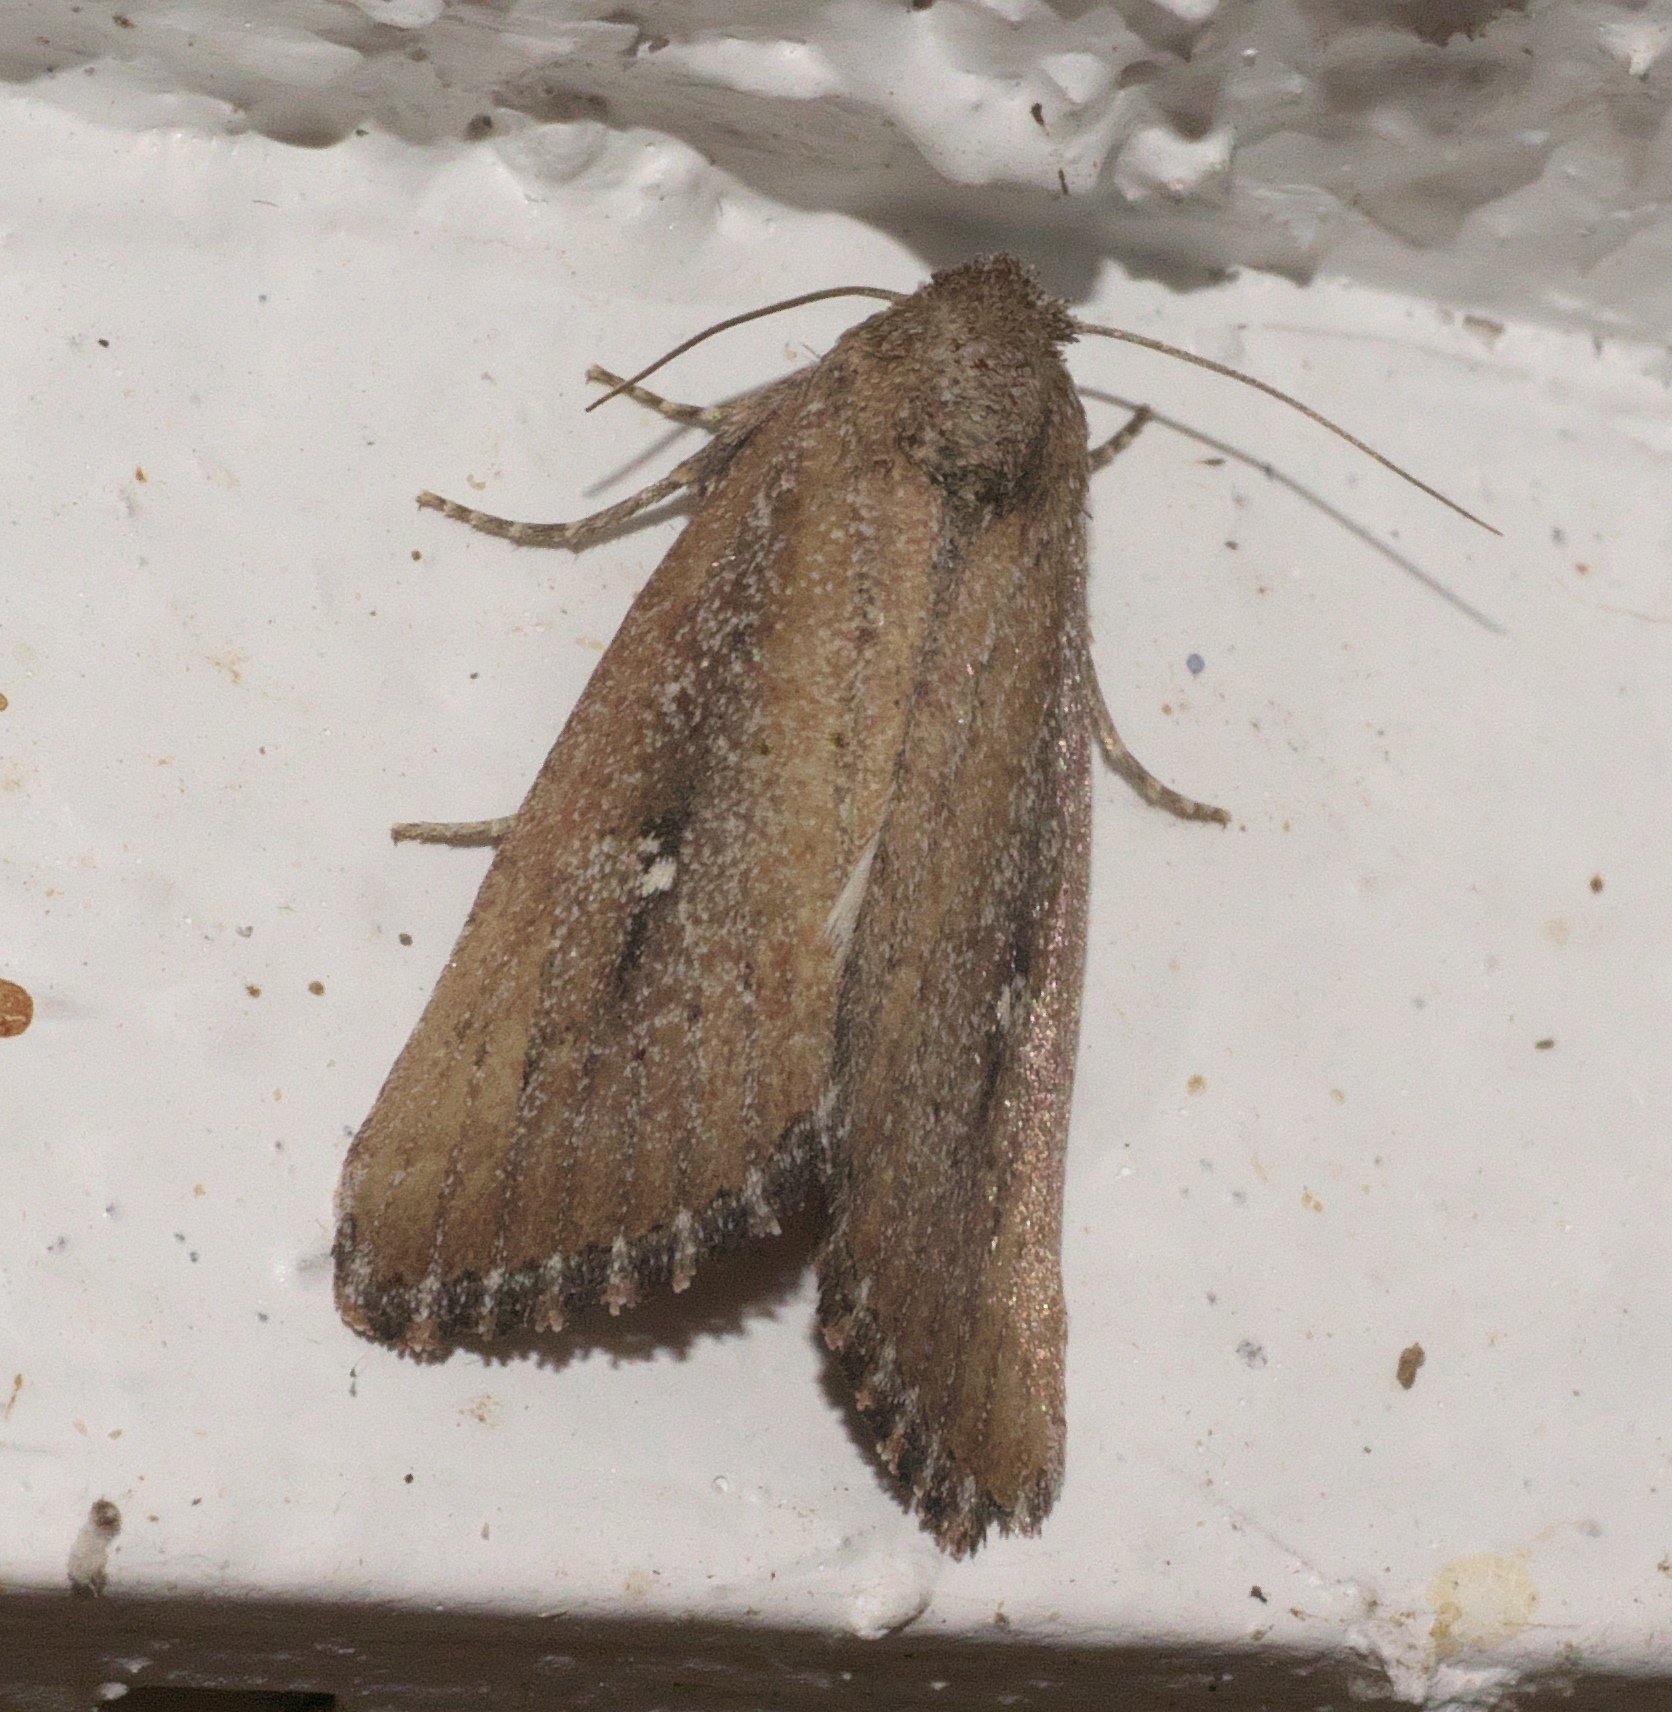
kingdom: Animalia
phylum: Arthropoda
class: Insecta
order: Lepidoptera
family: Noctuidae
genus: Condica
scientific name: Condica videns
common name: White-dotted groundling
